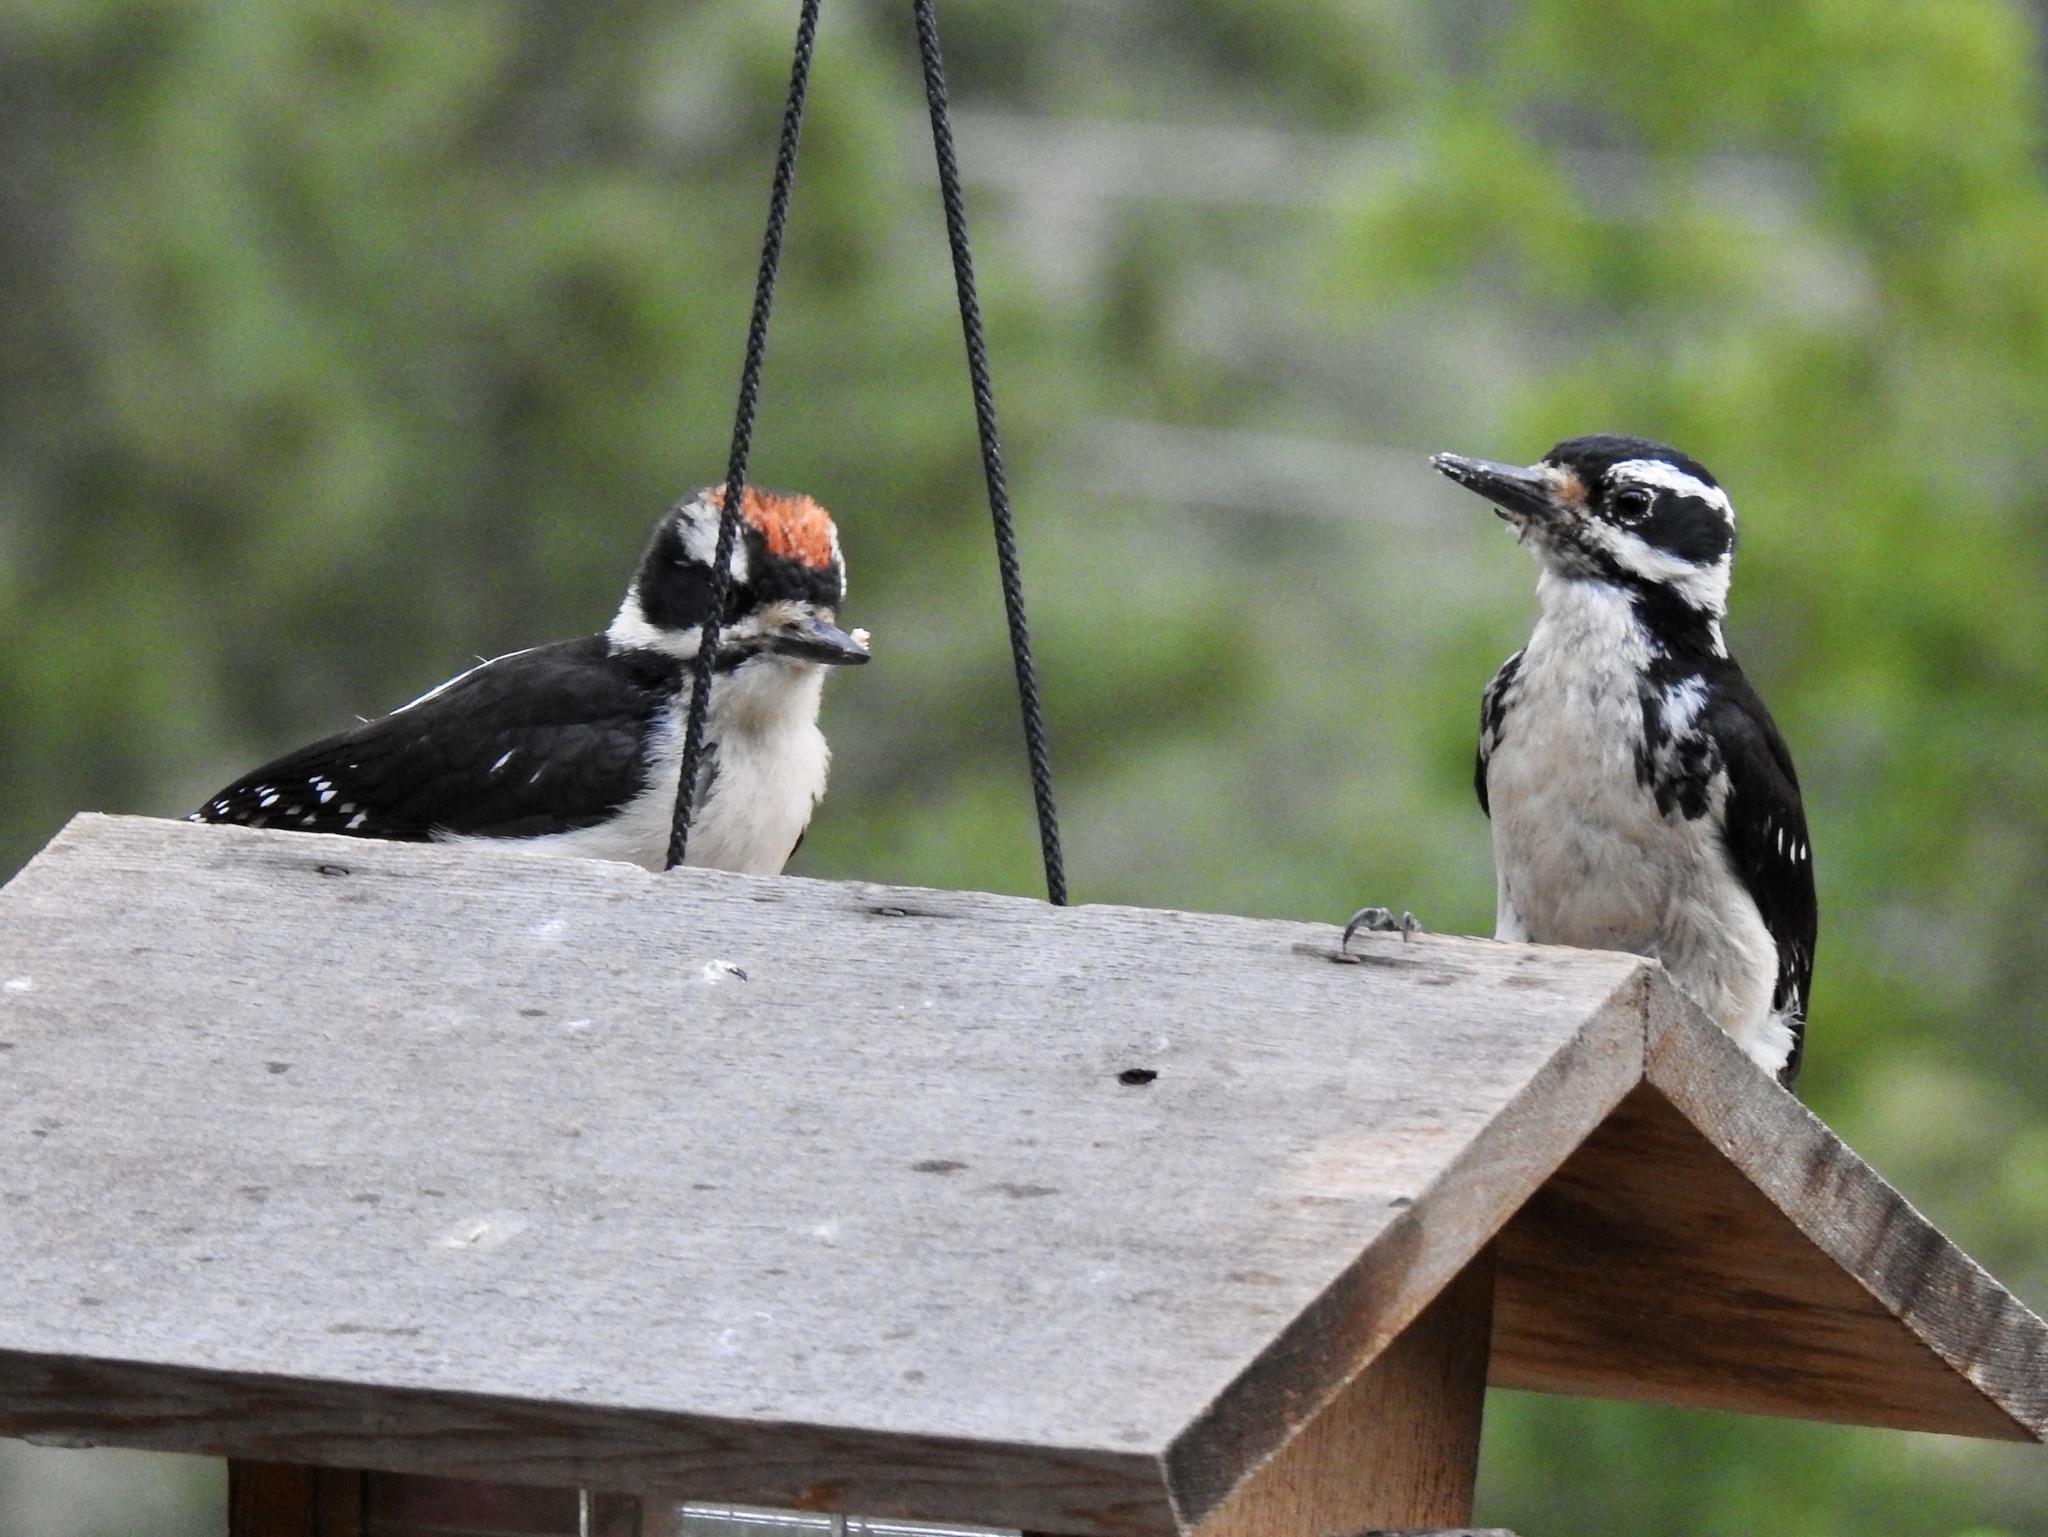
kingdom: Animalia
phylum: Chordata
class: Aves
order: Piciformes
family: Picidae
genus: Leuconotopicus
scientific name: Leuconotopicus villosus
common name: Hairy woodpecker
